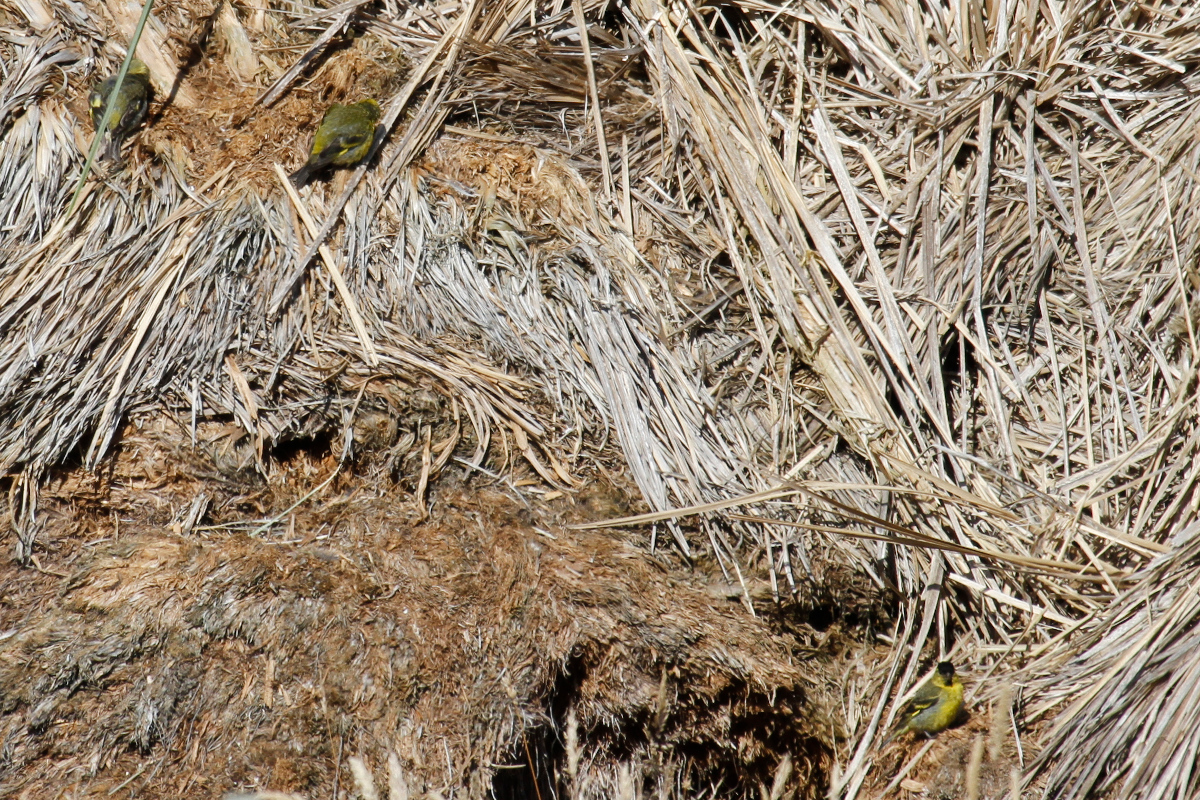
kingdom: Animalia
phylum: Chordata
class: Aves
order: Passeriformes
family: Fringillidae
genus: Spinus
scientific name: Spinus barbatus
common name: Black-chinned siskin
